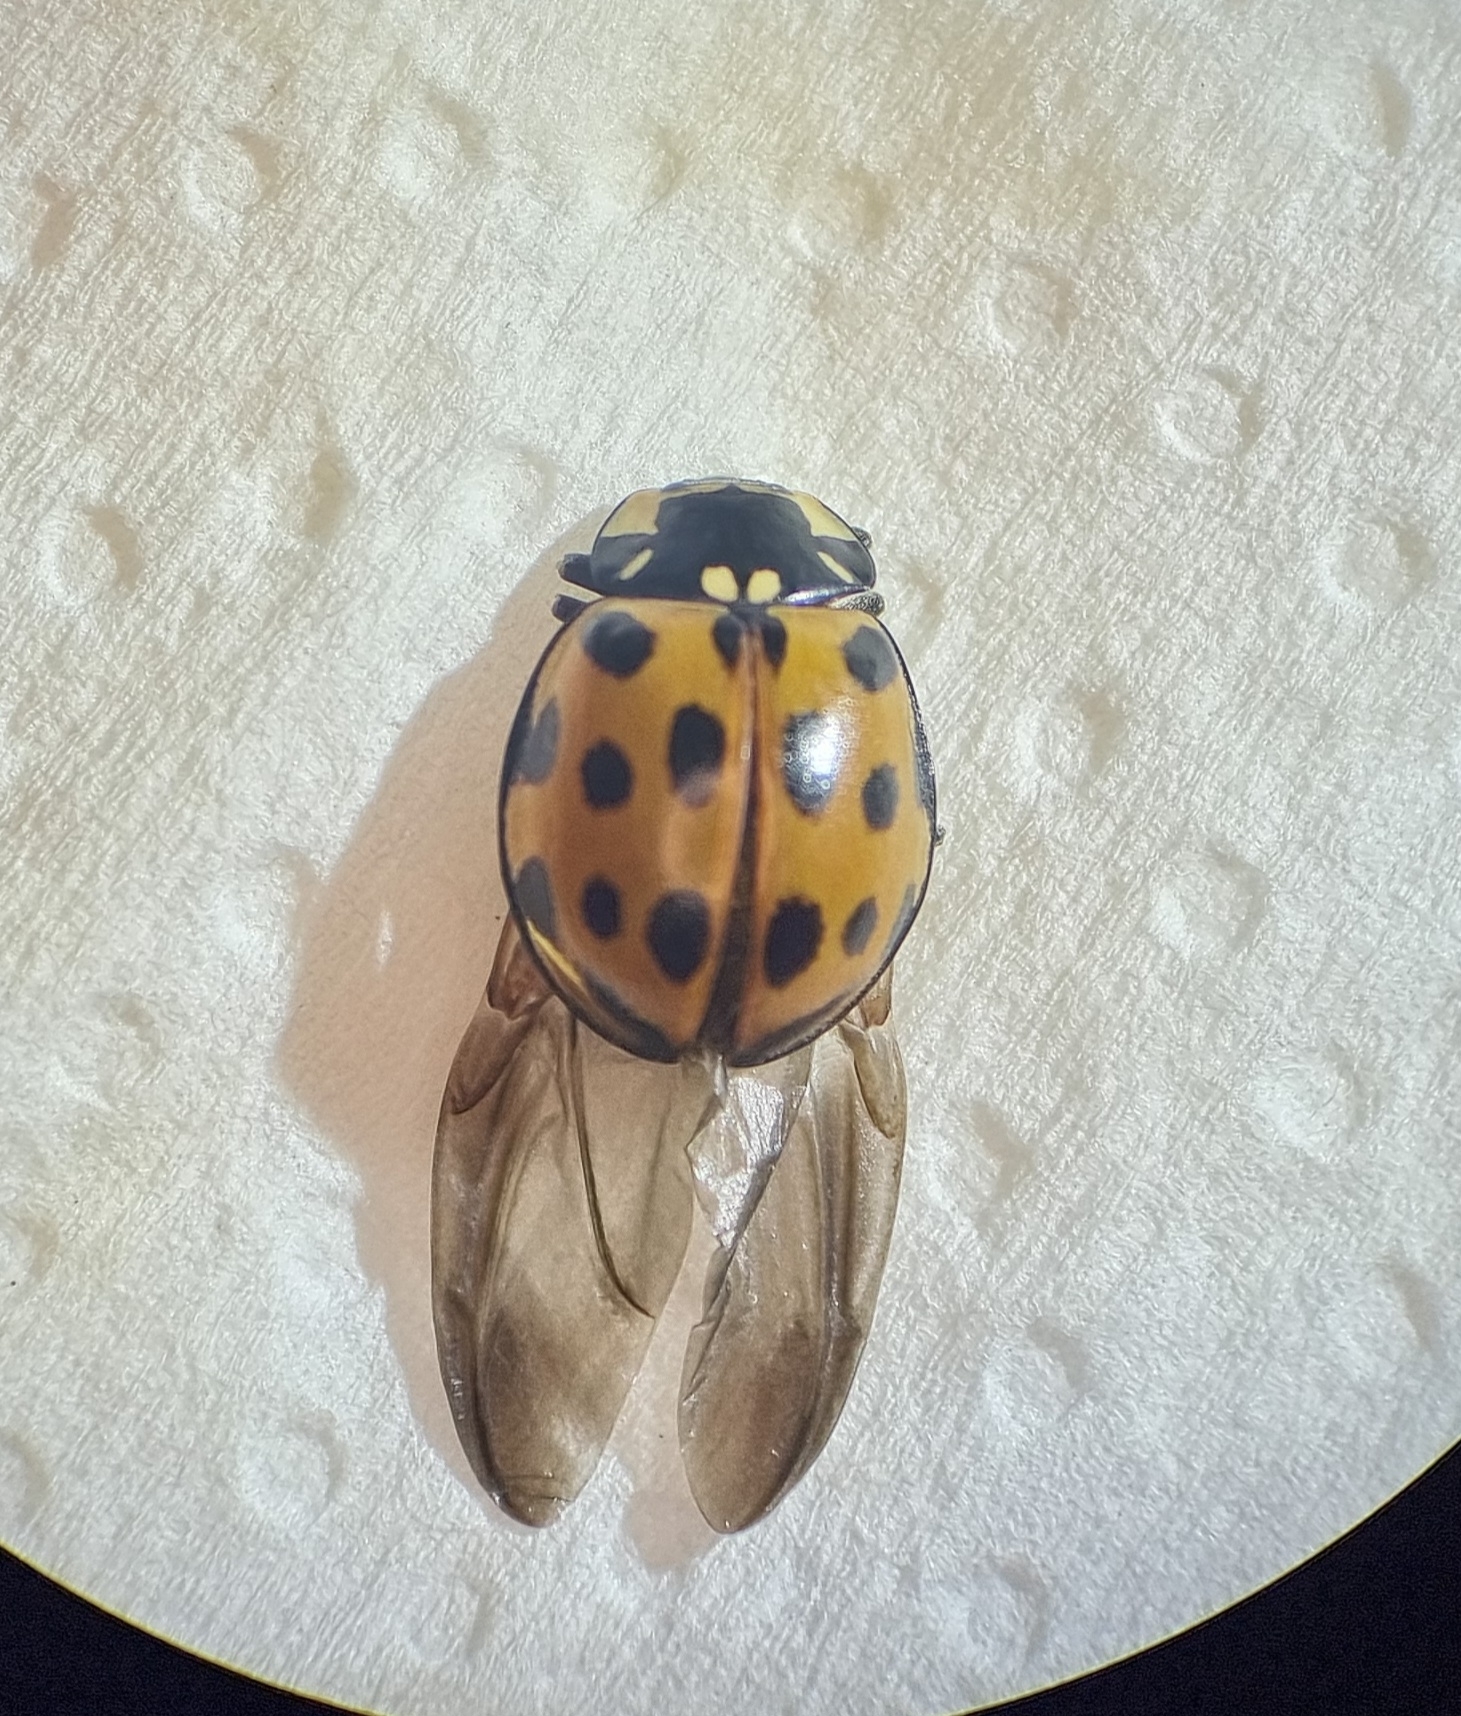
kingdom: Animalia
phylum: Arthropoda
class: Insecta
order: Coleoptera
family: Coccinellidae
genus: Anatis
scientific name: Anatis ocellata
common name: Eyed ladybird
